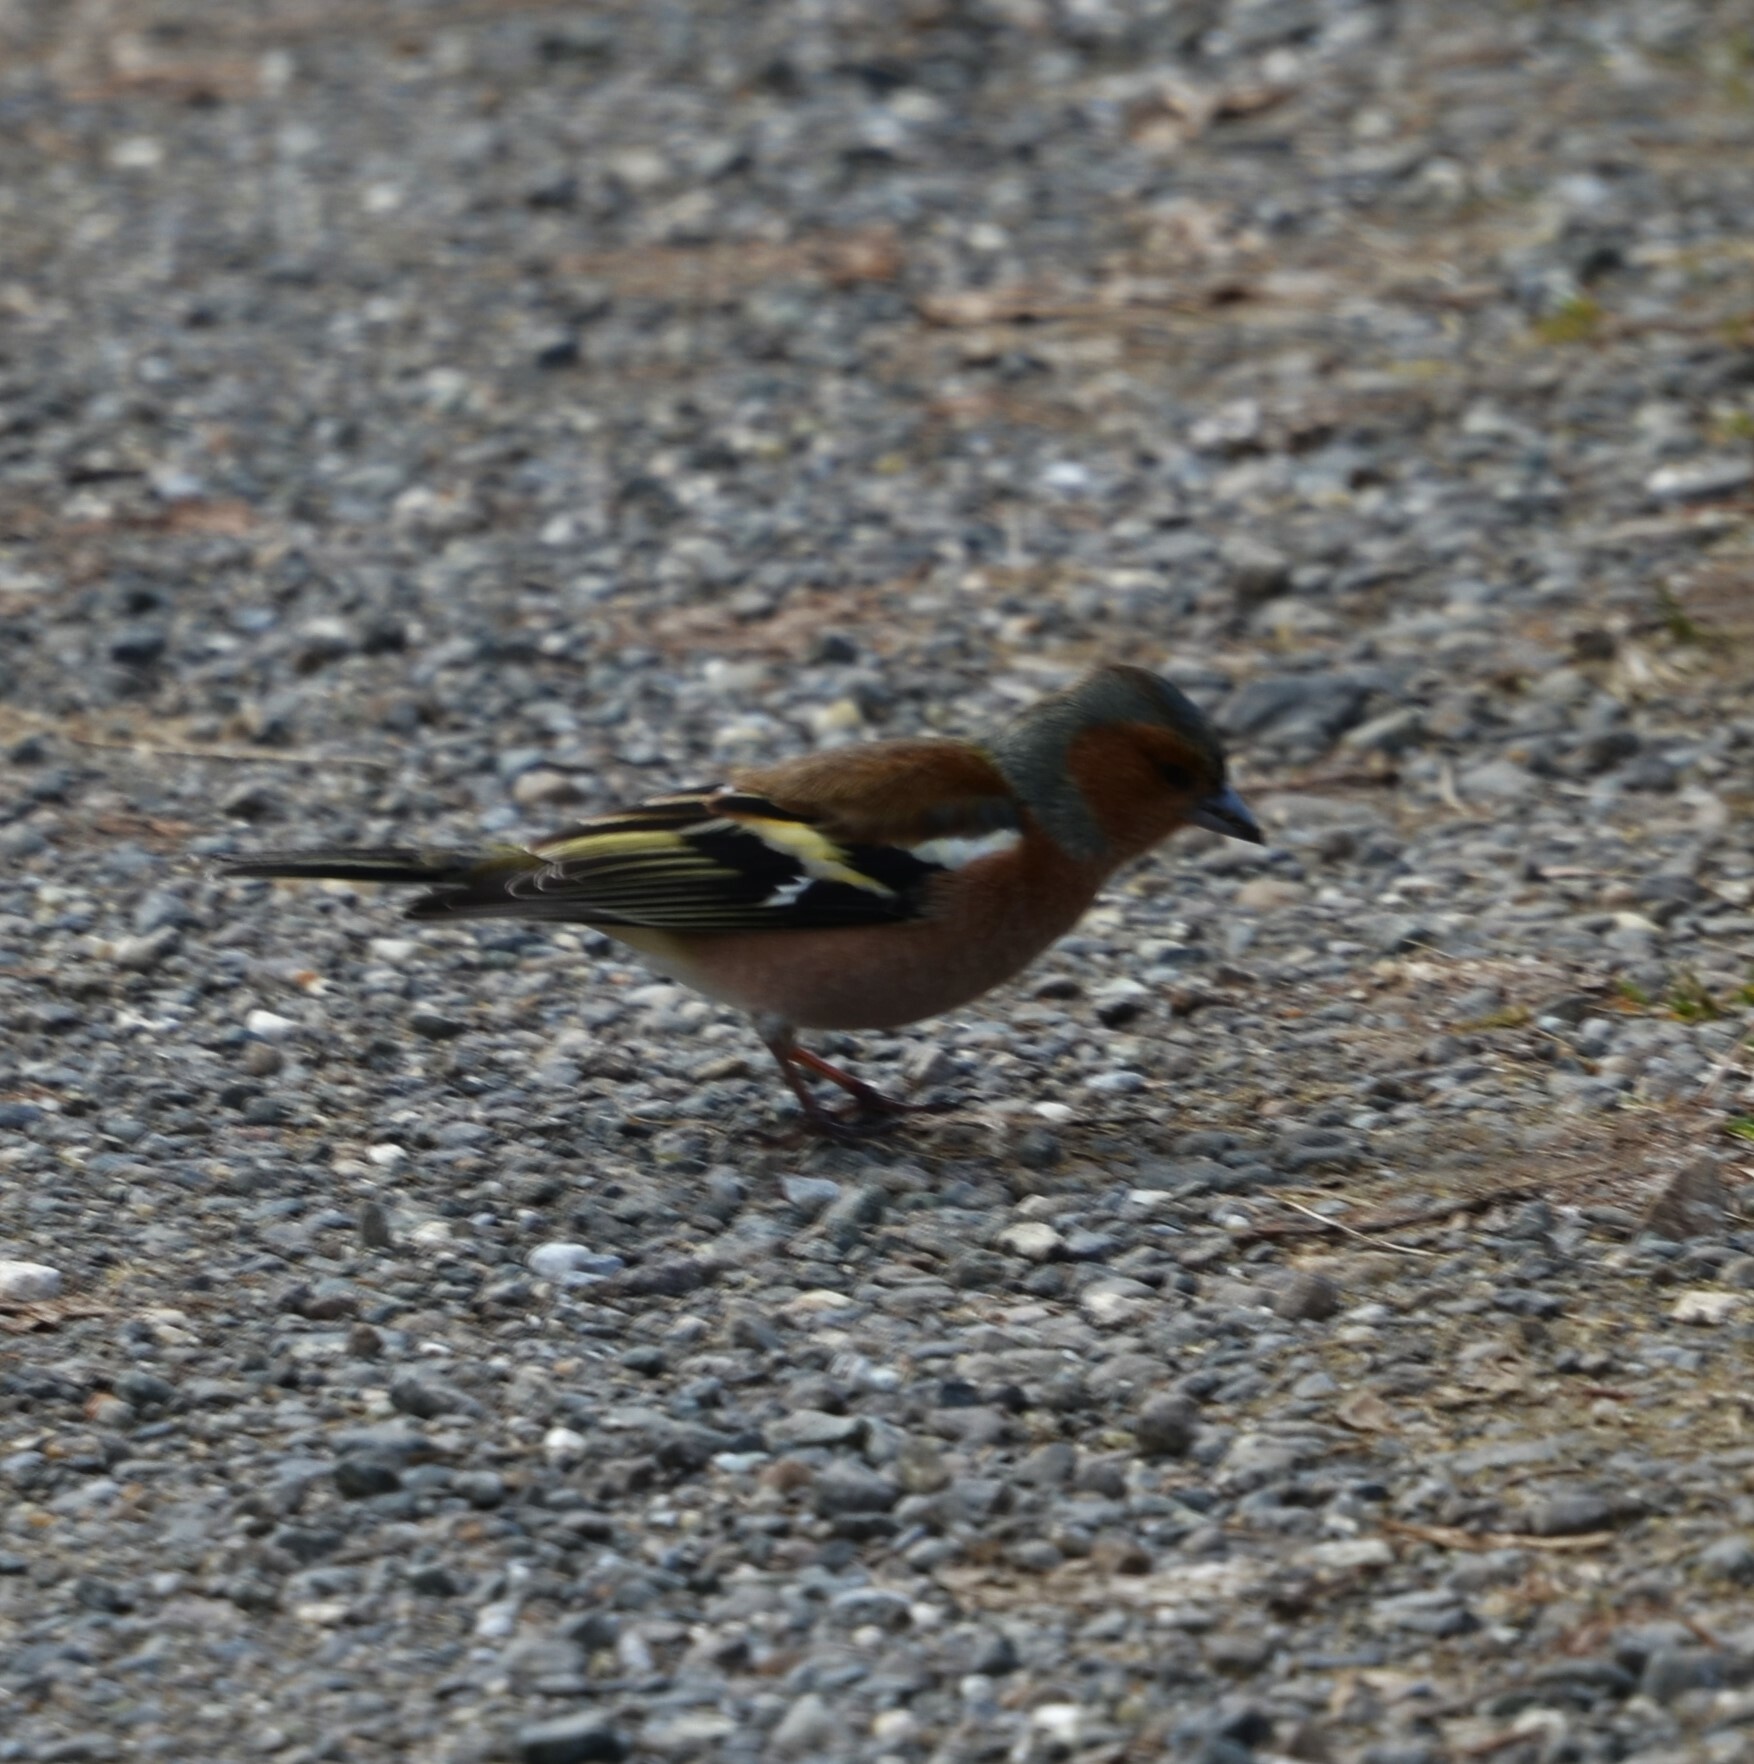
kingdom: Animalia
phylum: Chordata
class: Aves
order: Passeriformes
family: Fringillidae
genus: Fringilla
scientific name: Fringilla coelebs
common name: Common chaffinch
